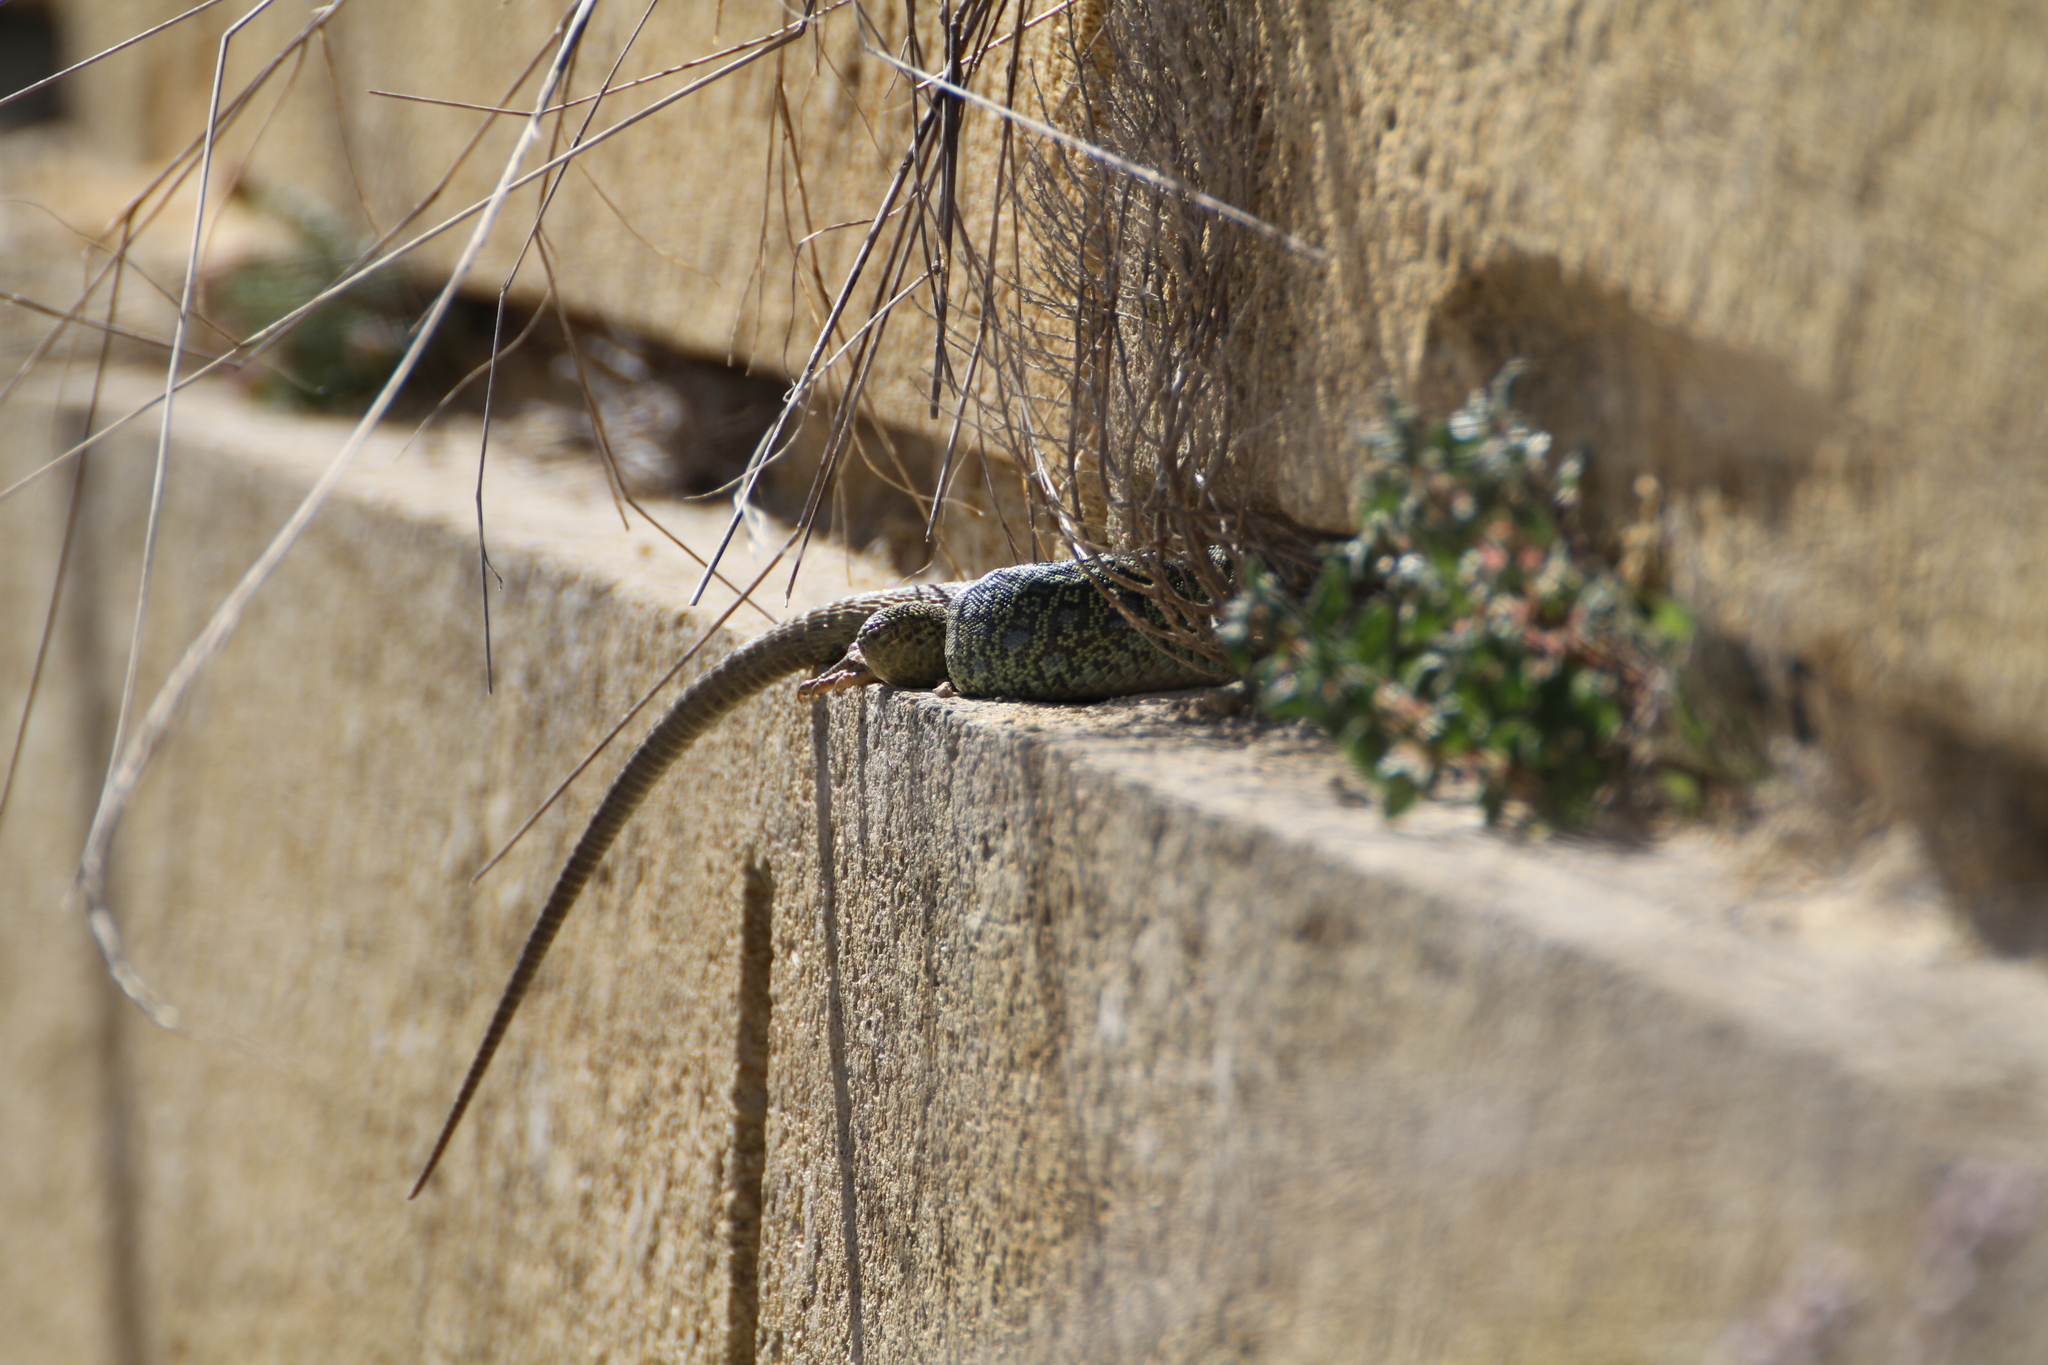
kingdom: Animalia
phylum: Chordata
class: Squamata
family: Lacertidae
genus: Timon
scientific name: Timon lepidus
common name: Ocellated lizard
